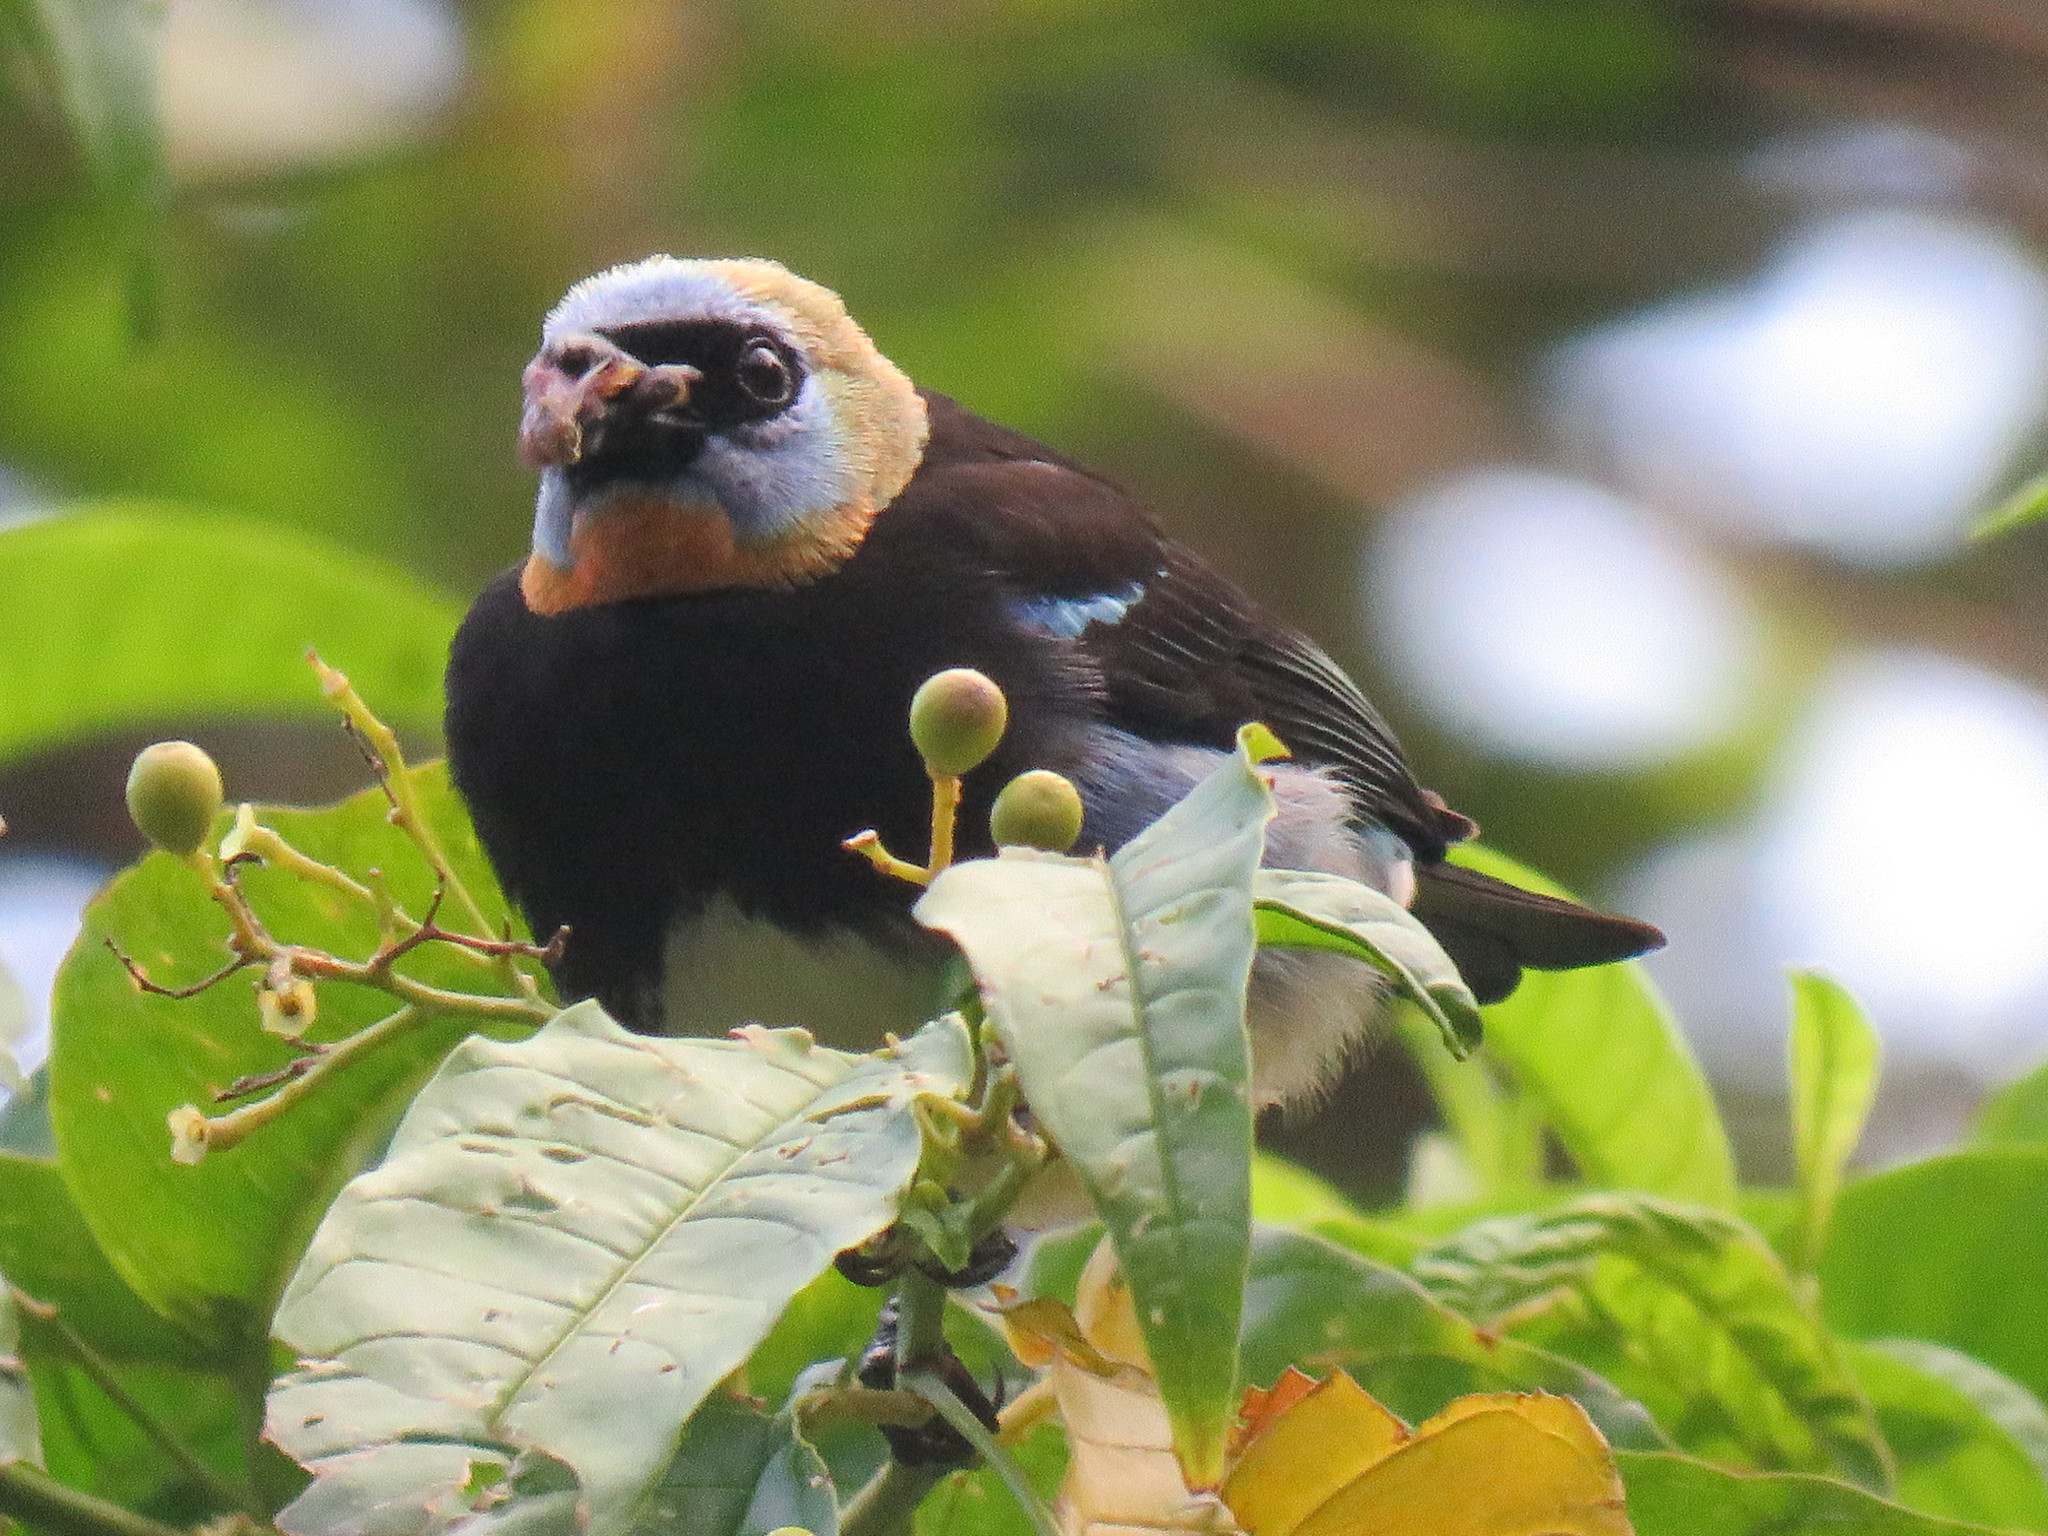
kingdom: Animalia
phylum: Chordata
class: Aves
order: Passeriformes
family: Thraupidae
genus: Stilpnia
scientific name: Stilpnia larvata
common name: Golden-hooded tanager
